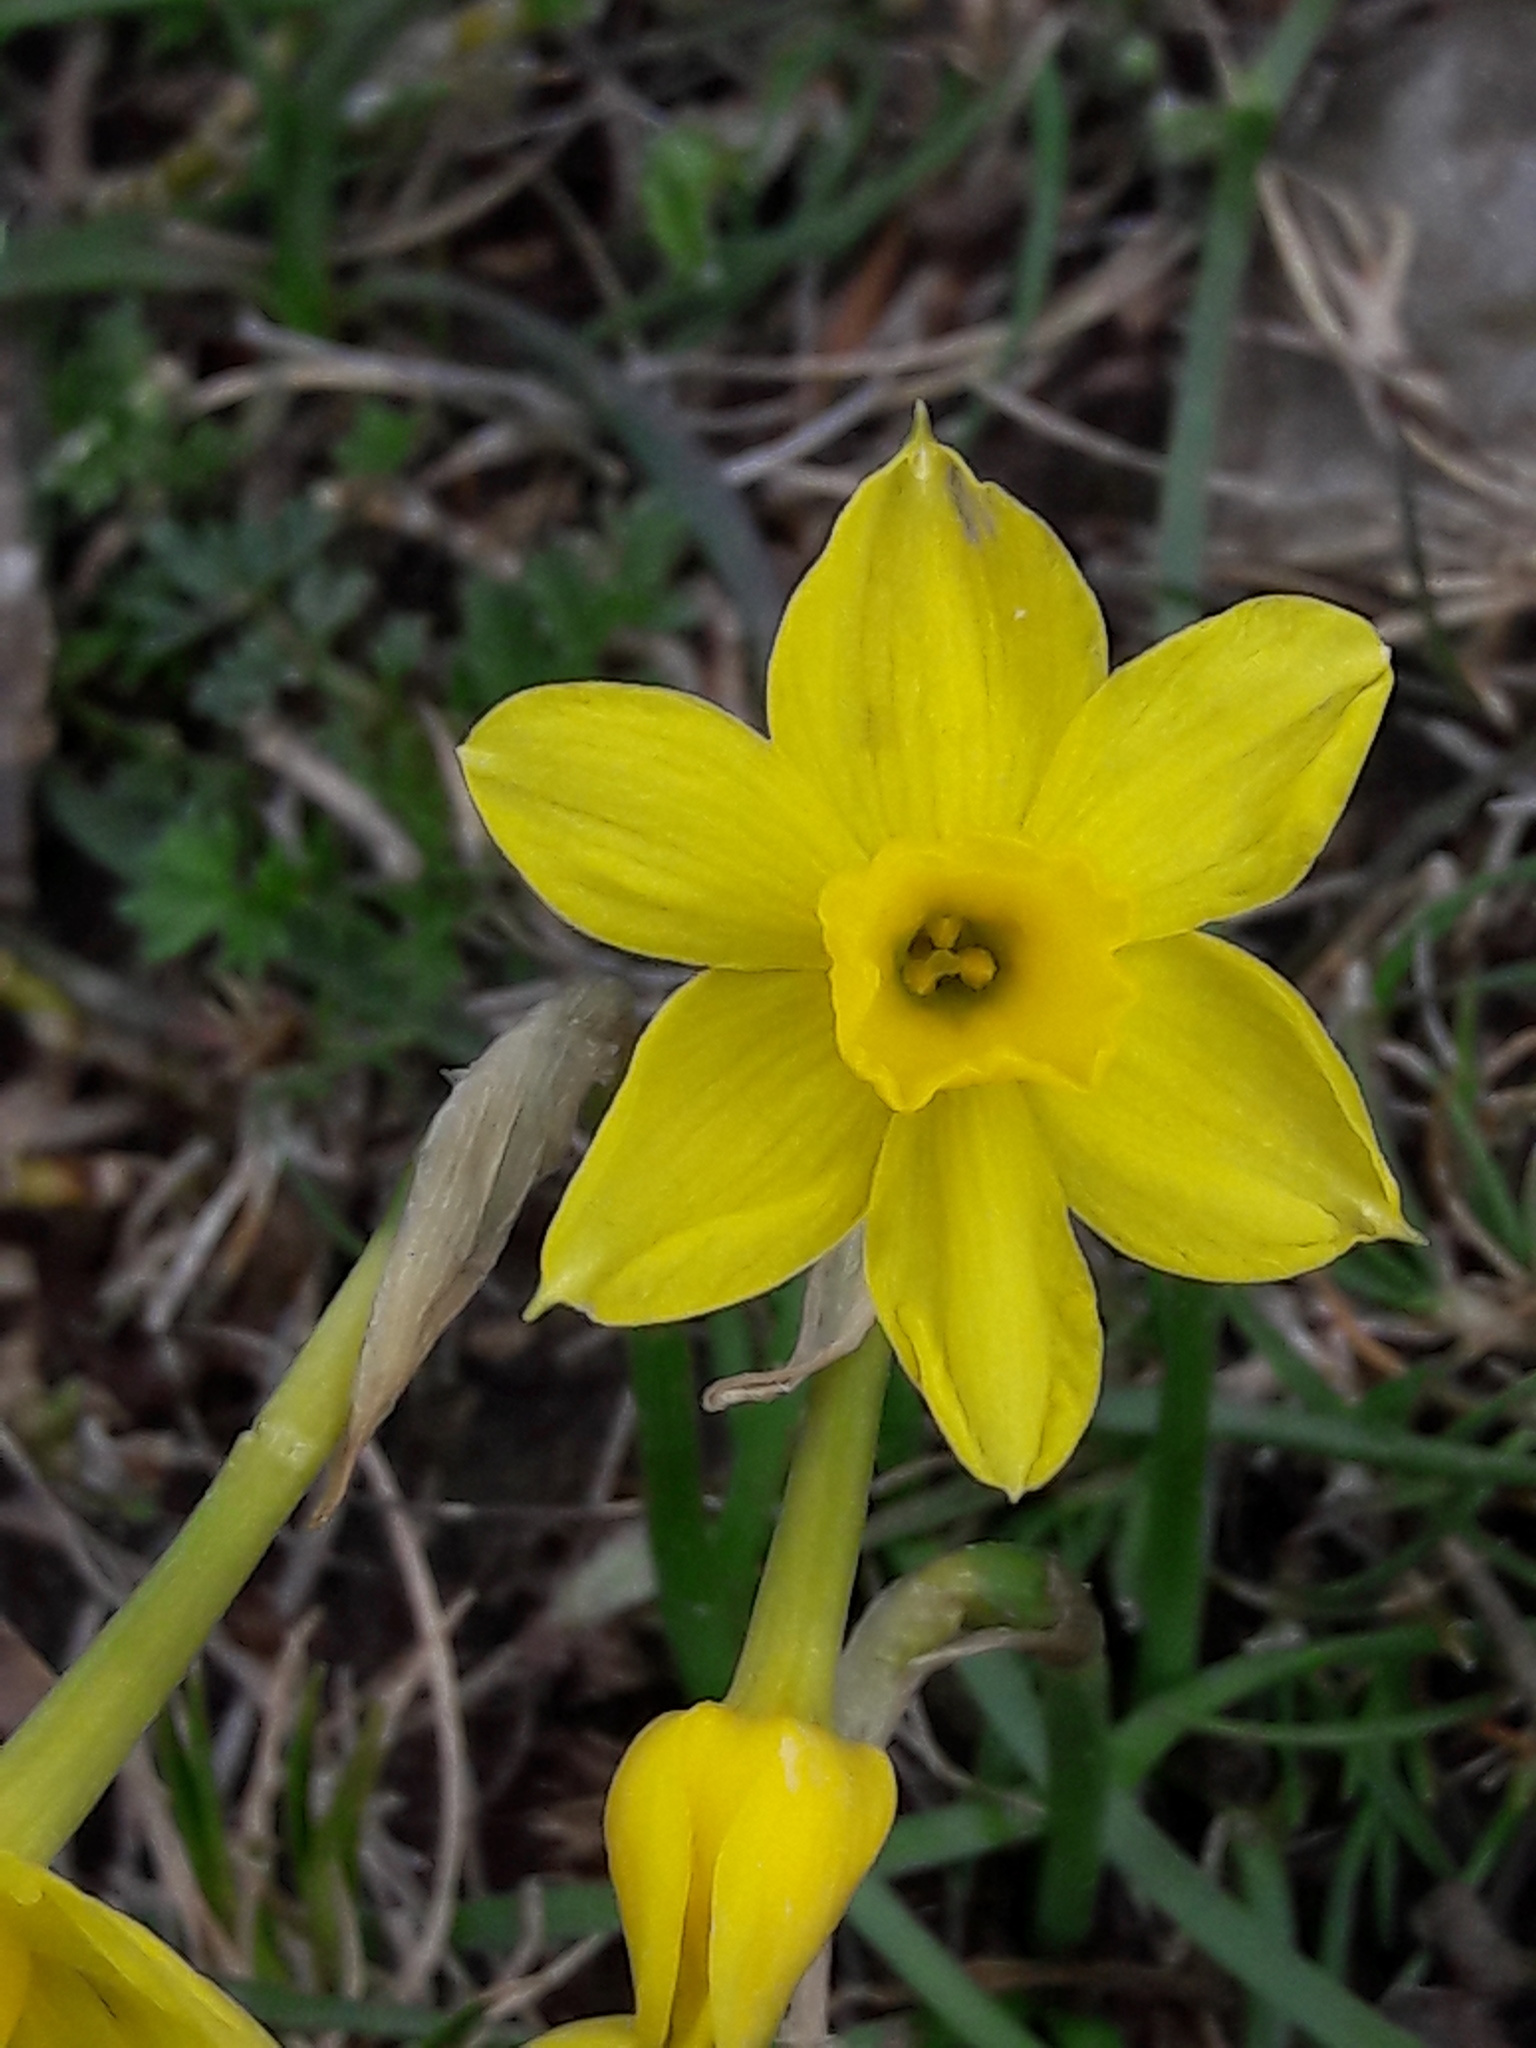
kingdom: Plantae
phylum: Tracheophyta
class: Liliopsida
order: Asparagales
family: Amaryllidaceae
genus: Narcissus
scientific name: Narcissus assoanus
